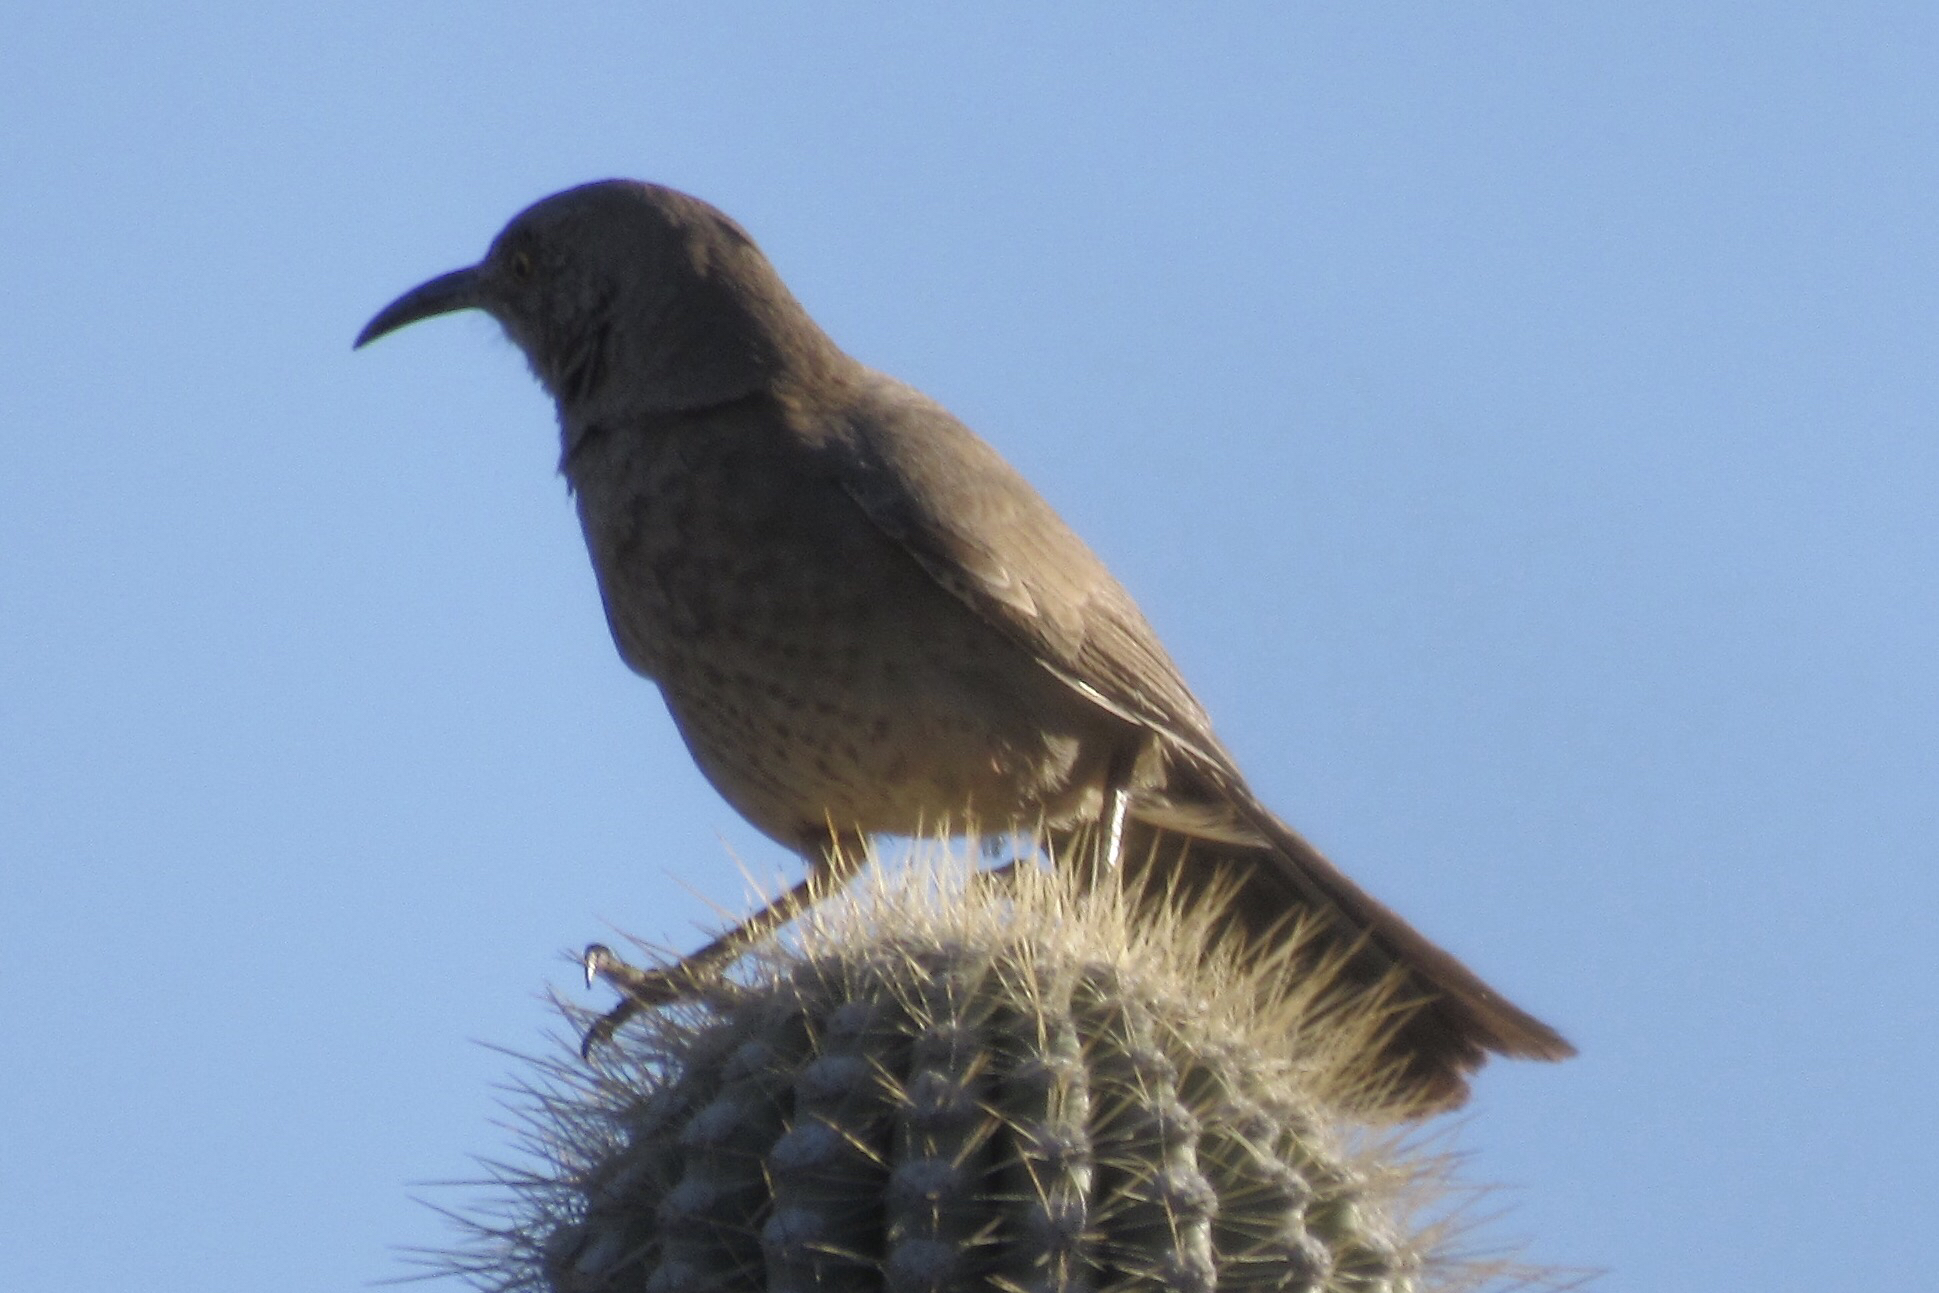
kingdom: Animalia
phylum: Chordata
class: Aves
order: Passeriformes
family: Mimidae
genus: Toxostoma
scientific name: Toxostoma curvirostre
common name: Curve-billed thrasher
